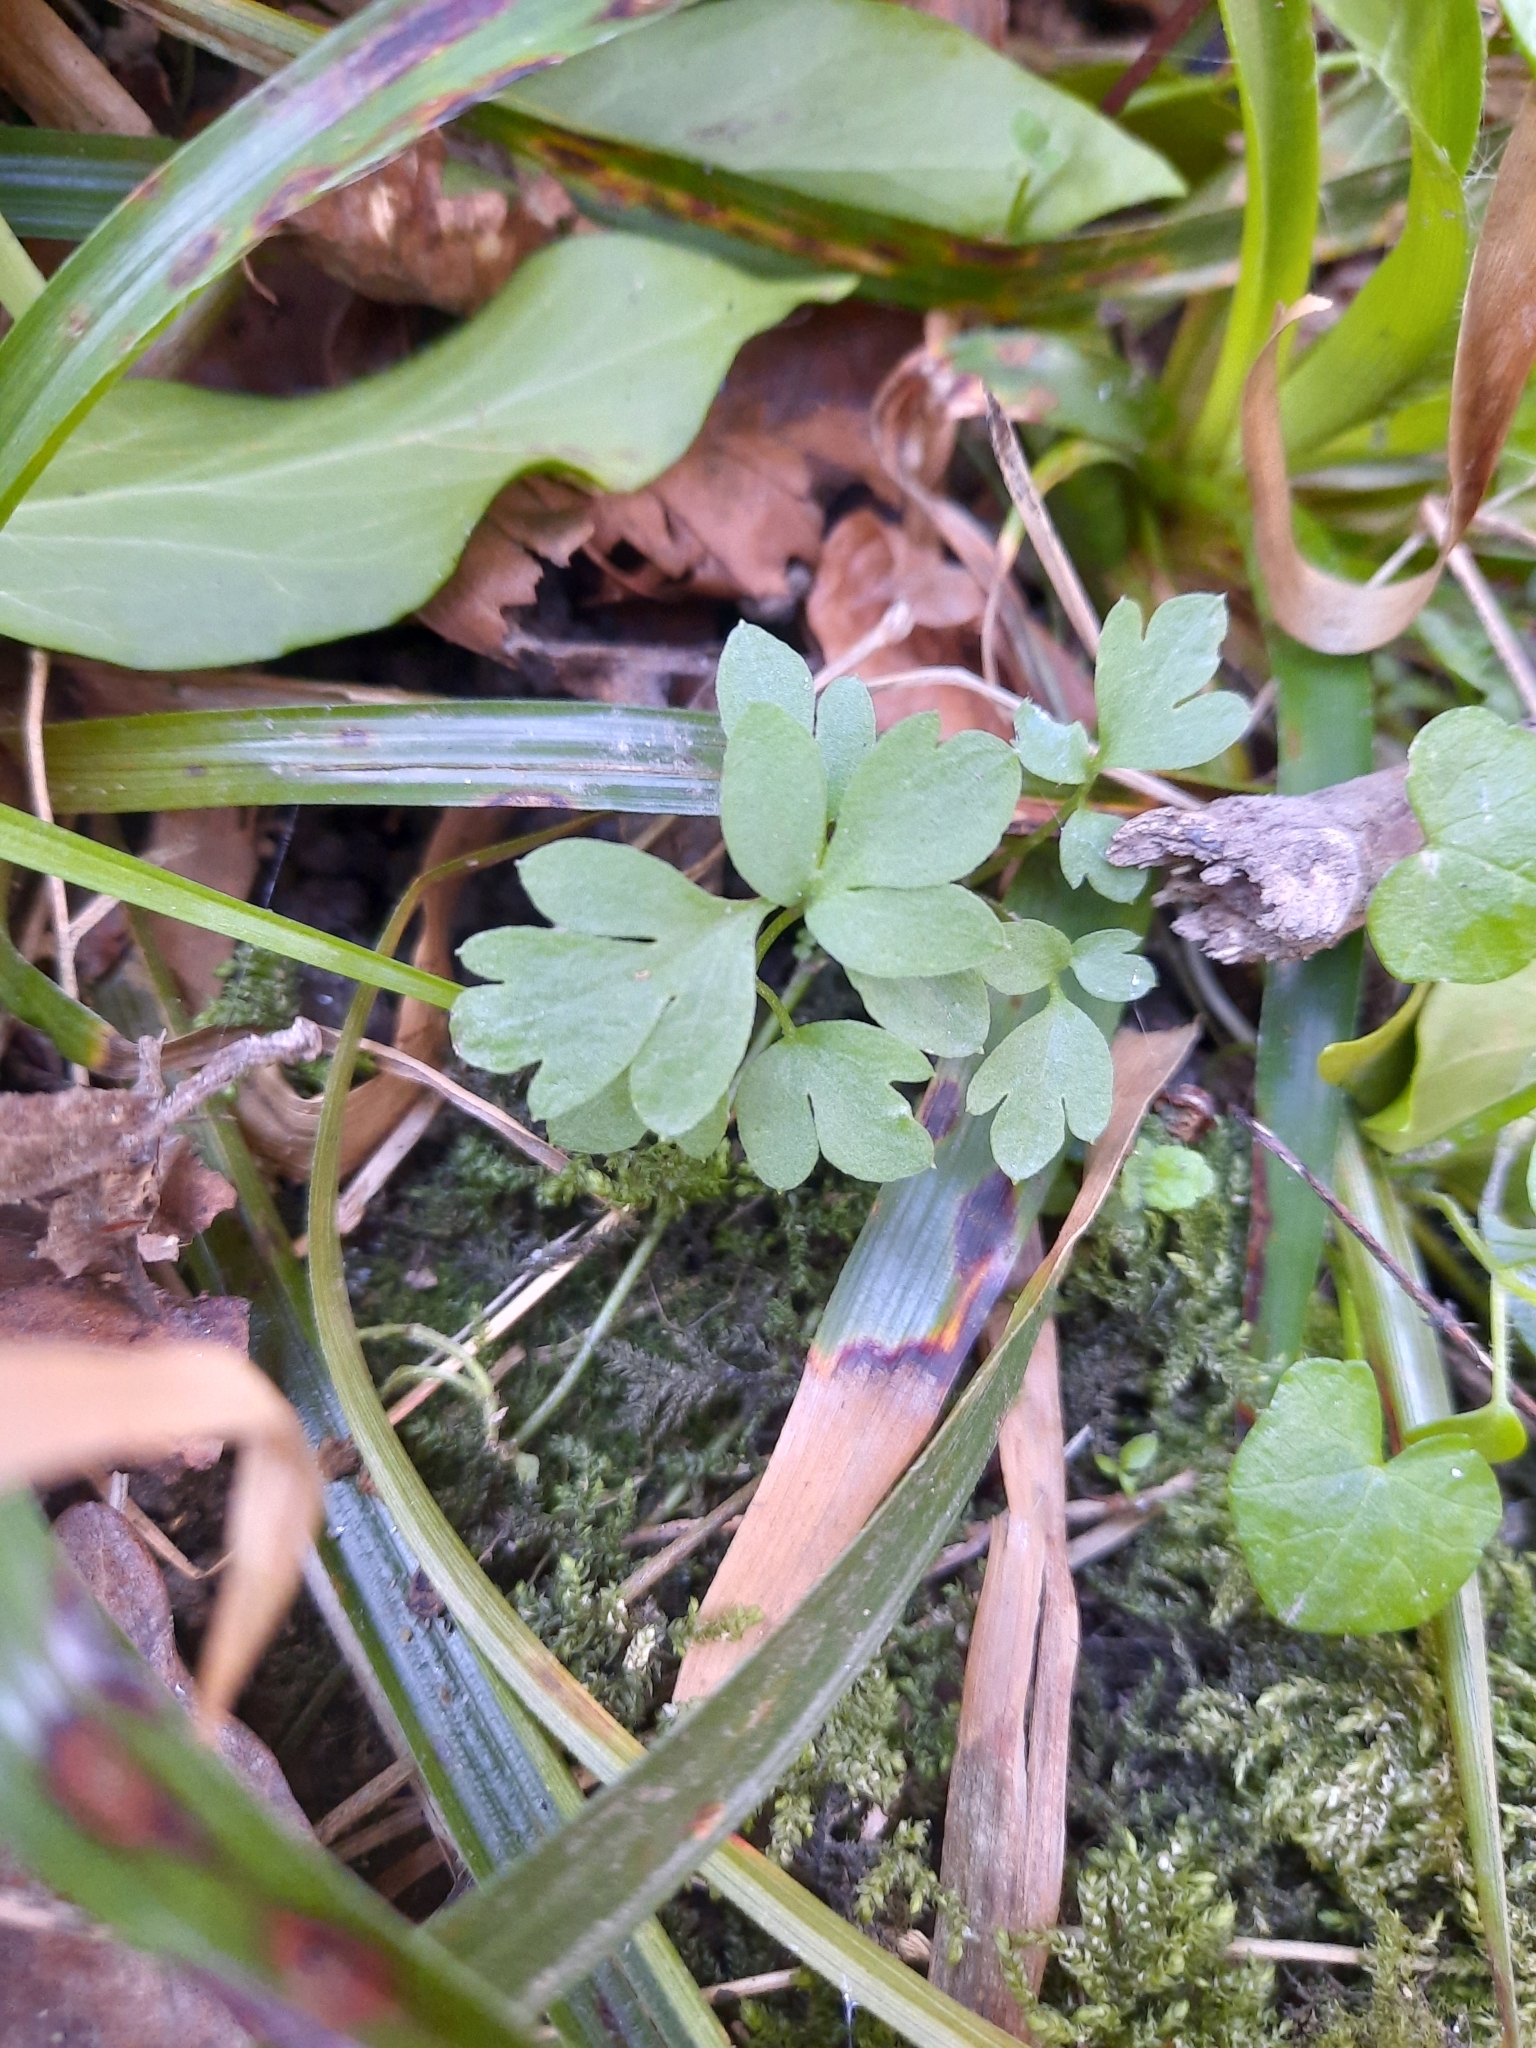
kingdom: Plantae
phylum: Tracheophyta
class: Magnoliopsida
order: Dipsacales
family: Viburnaceae
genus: Adoxa
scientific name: Adoxa moschatellina
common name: Moschatel
